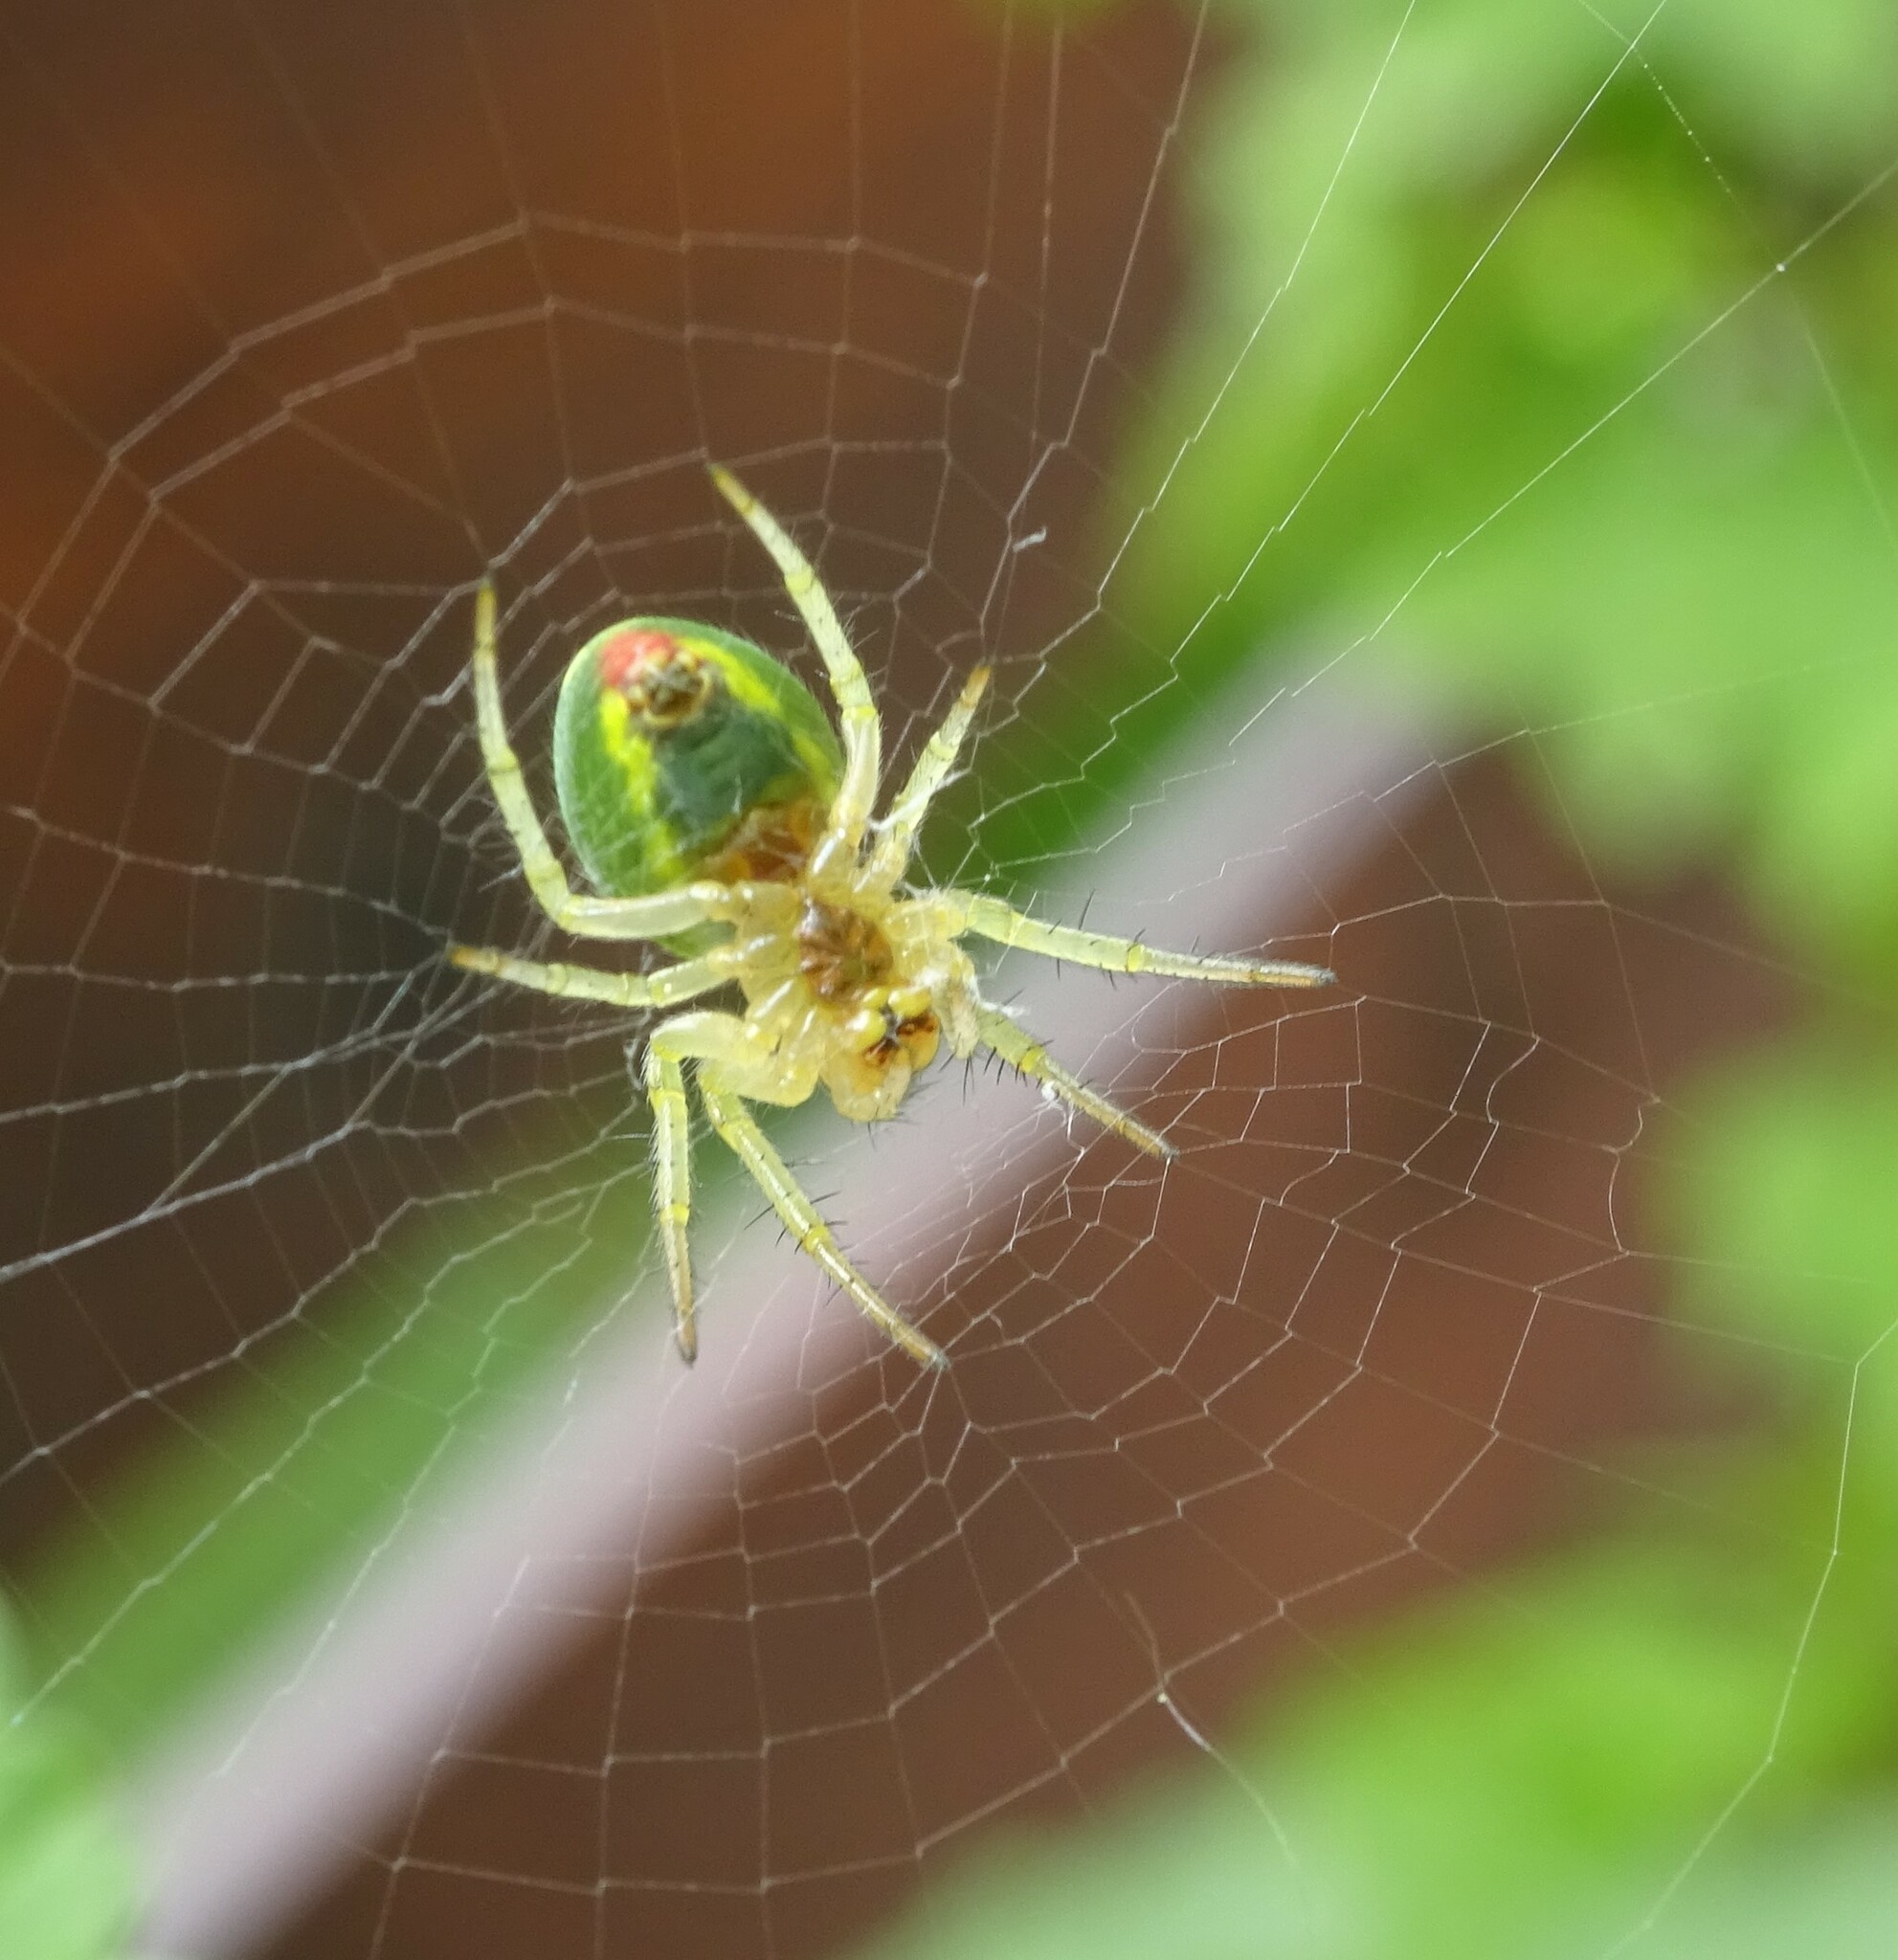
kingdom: Animalia
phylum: Arthropoda
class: Arachnida
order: Araneae
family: Araneidae
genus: Araniella
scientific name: Araniella
